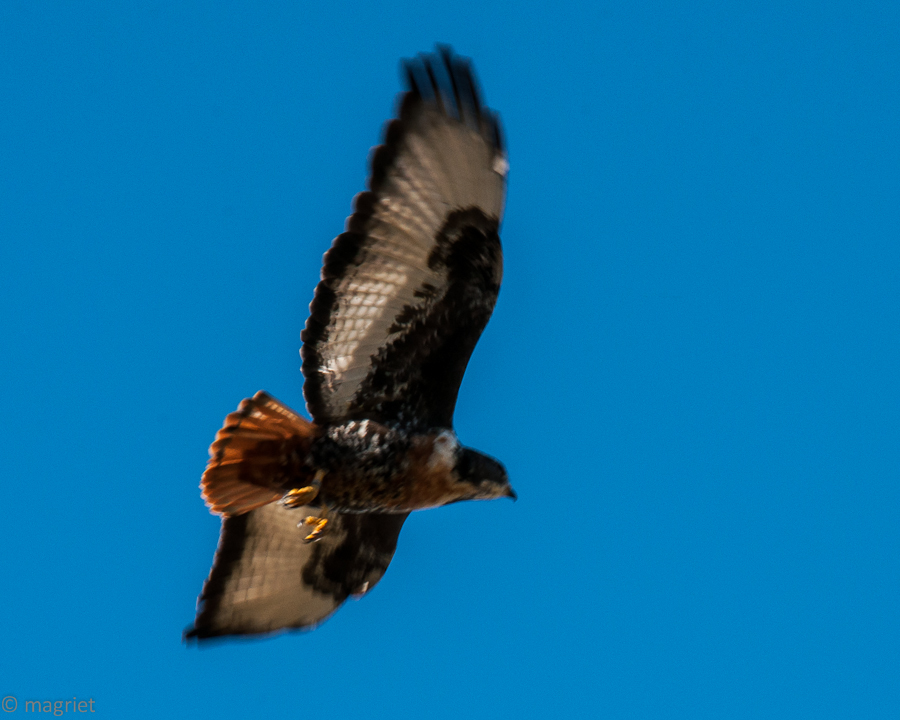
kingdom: Animalia
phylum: Chordata
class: Aves
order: Accipitriformes
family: Accipitridae
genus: Buteo
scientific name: Buteo rufofuscus
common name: Jackal buzzard
